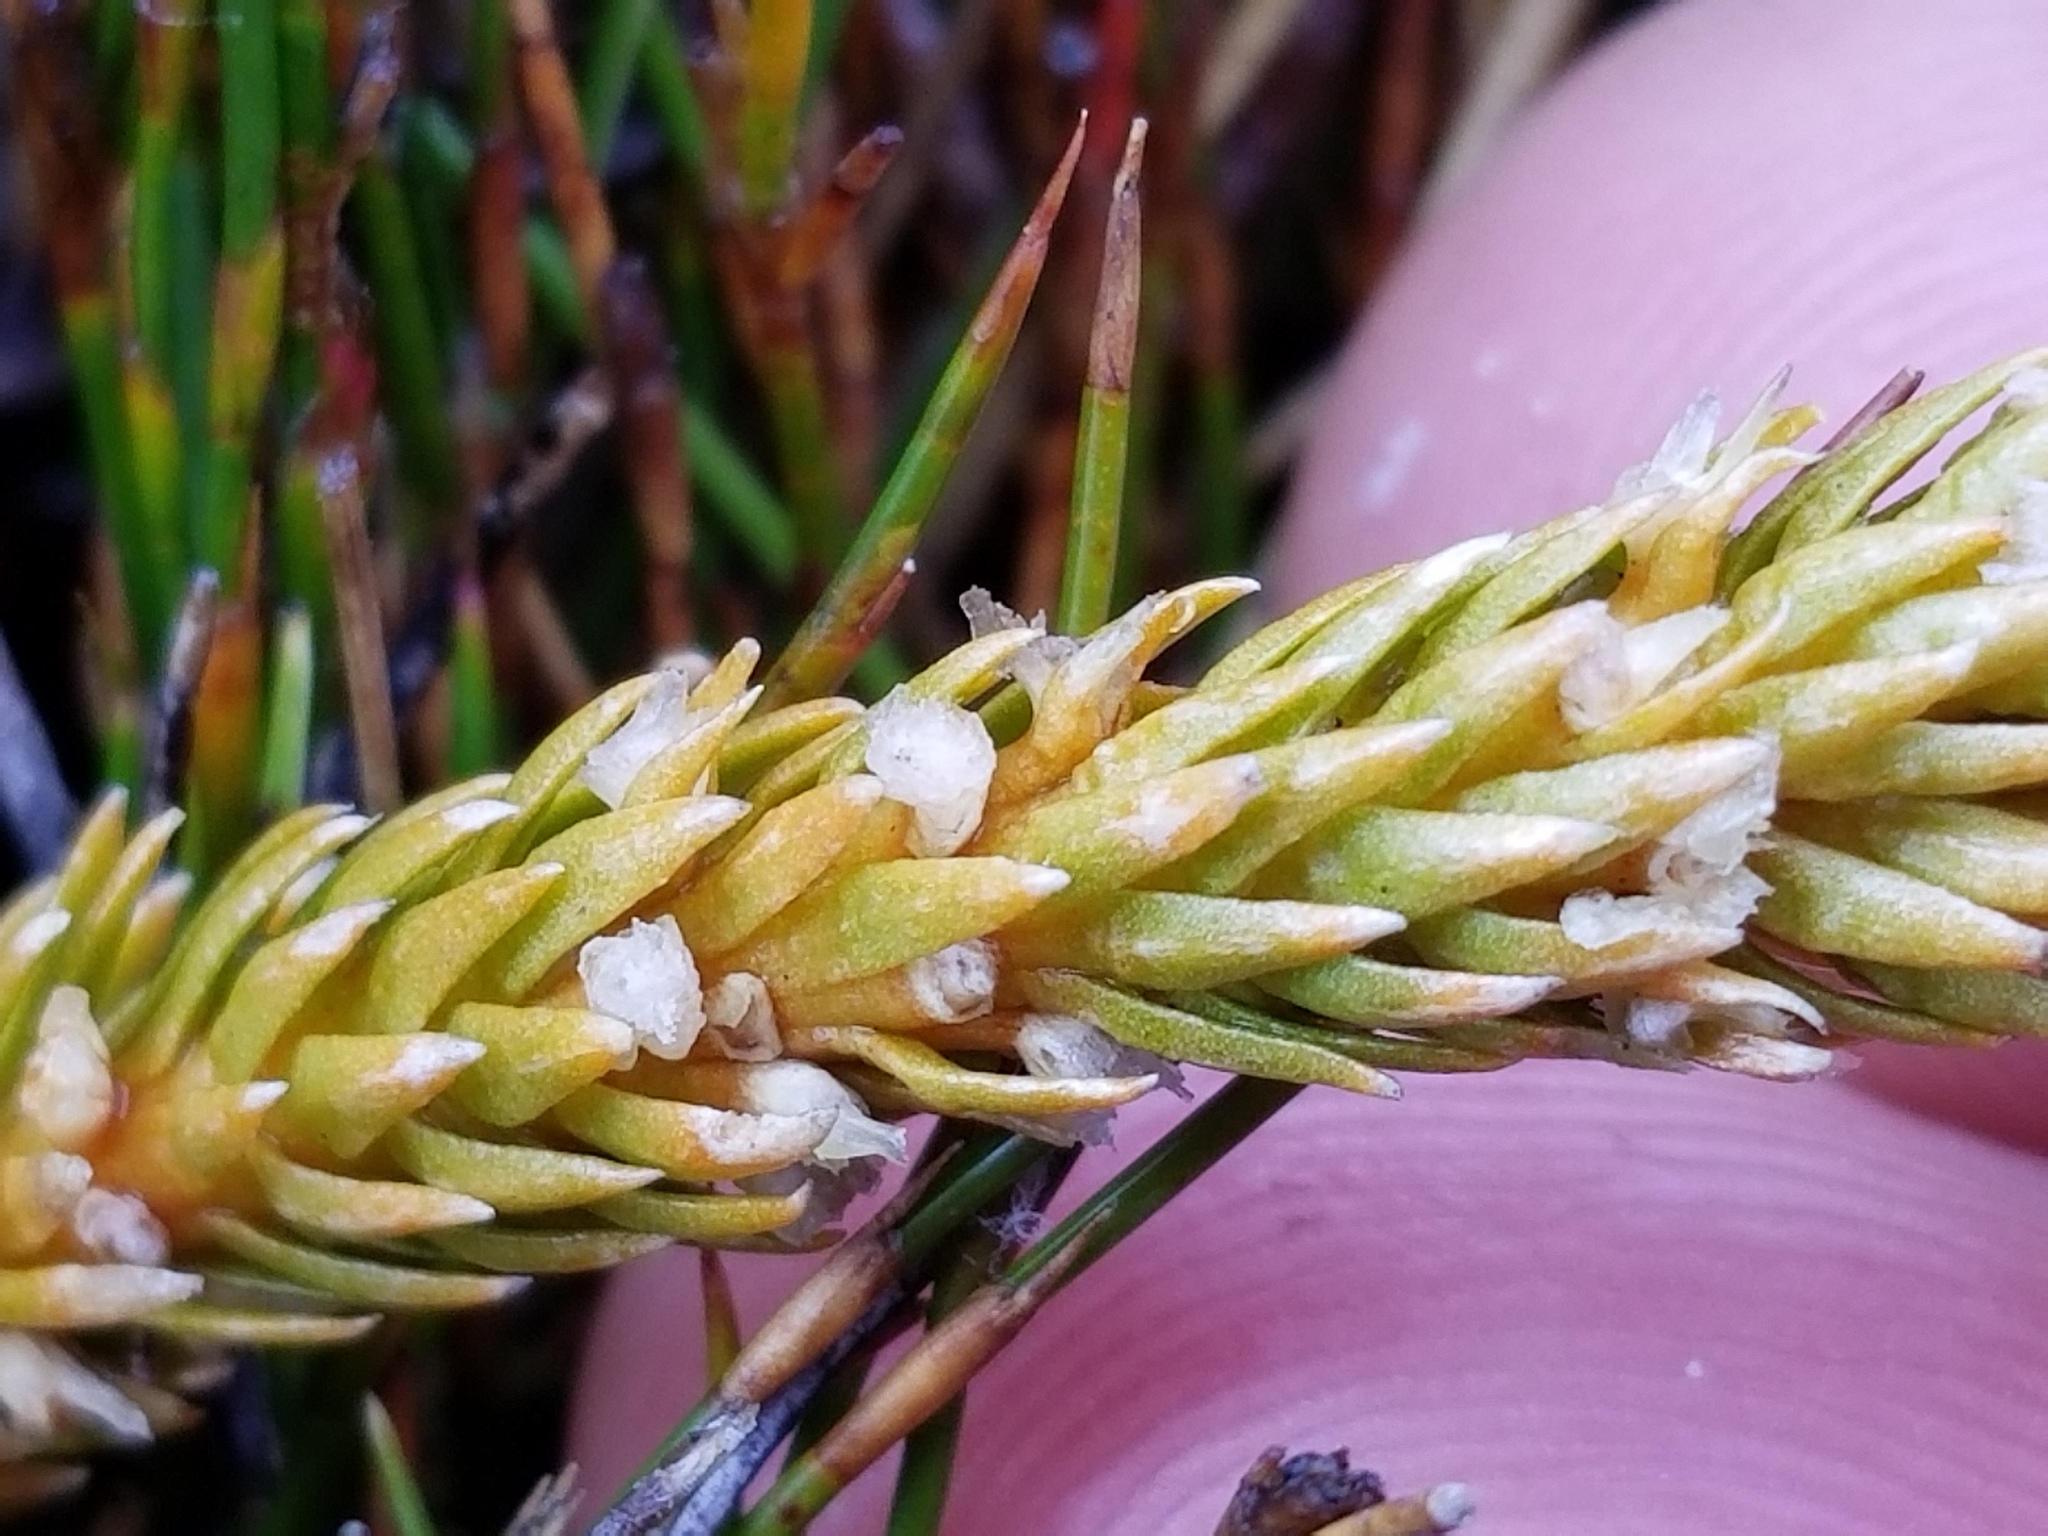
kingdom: Plantae
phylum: Tracheophyta
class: Lycopodiopsida
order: Lycopodiales
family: Lycopodiaceae
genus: Huperzia
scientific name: Huperzia australiana
